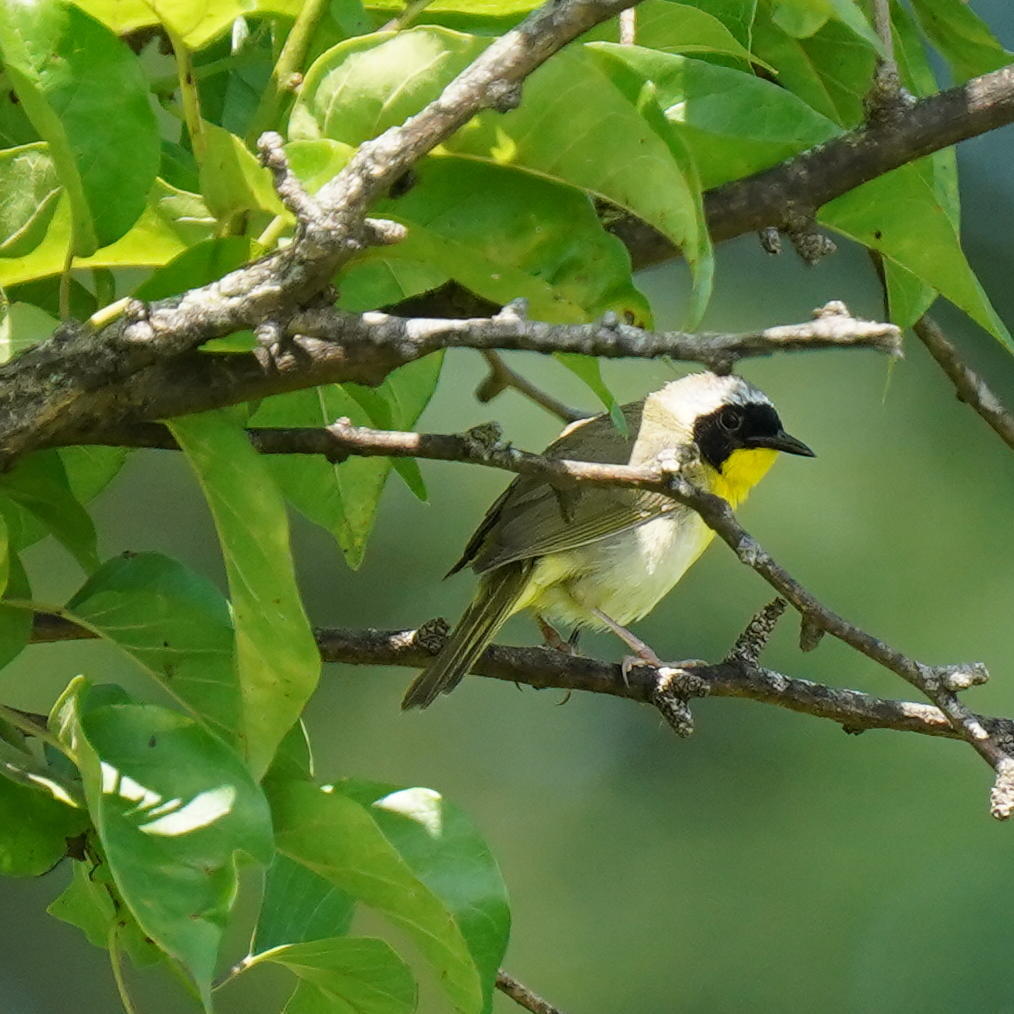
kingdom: Animalia
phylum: Chordata
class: Aves
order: Passeriformes
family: Parulidae
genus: Geothlypis
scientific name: Geothlypis trichas
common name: Common yellowthroat
